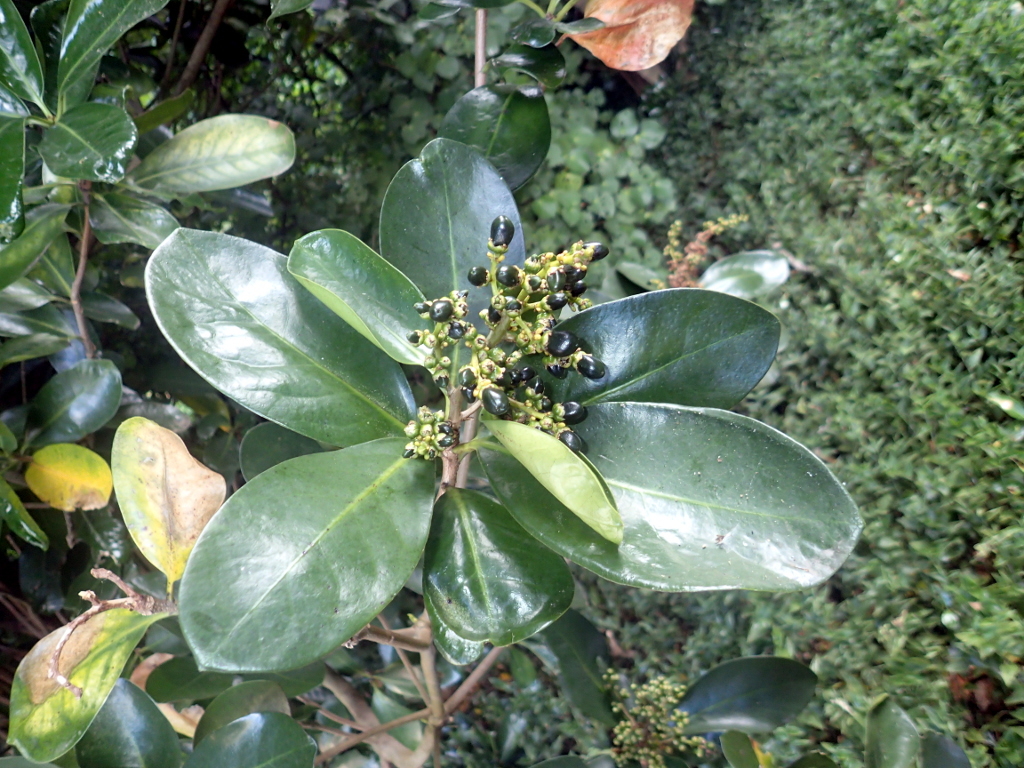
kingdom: Plantae
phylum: Tracheophyta
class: Magnoliopsida
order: Cucurbitales
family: Corynocarpaceae
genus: Corynocarpus
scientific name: Corynocarpus laevigatus
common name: New zealand laurel
